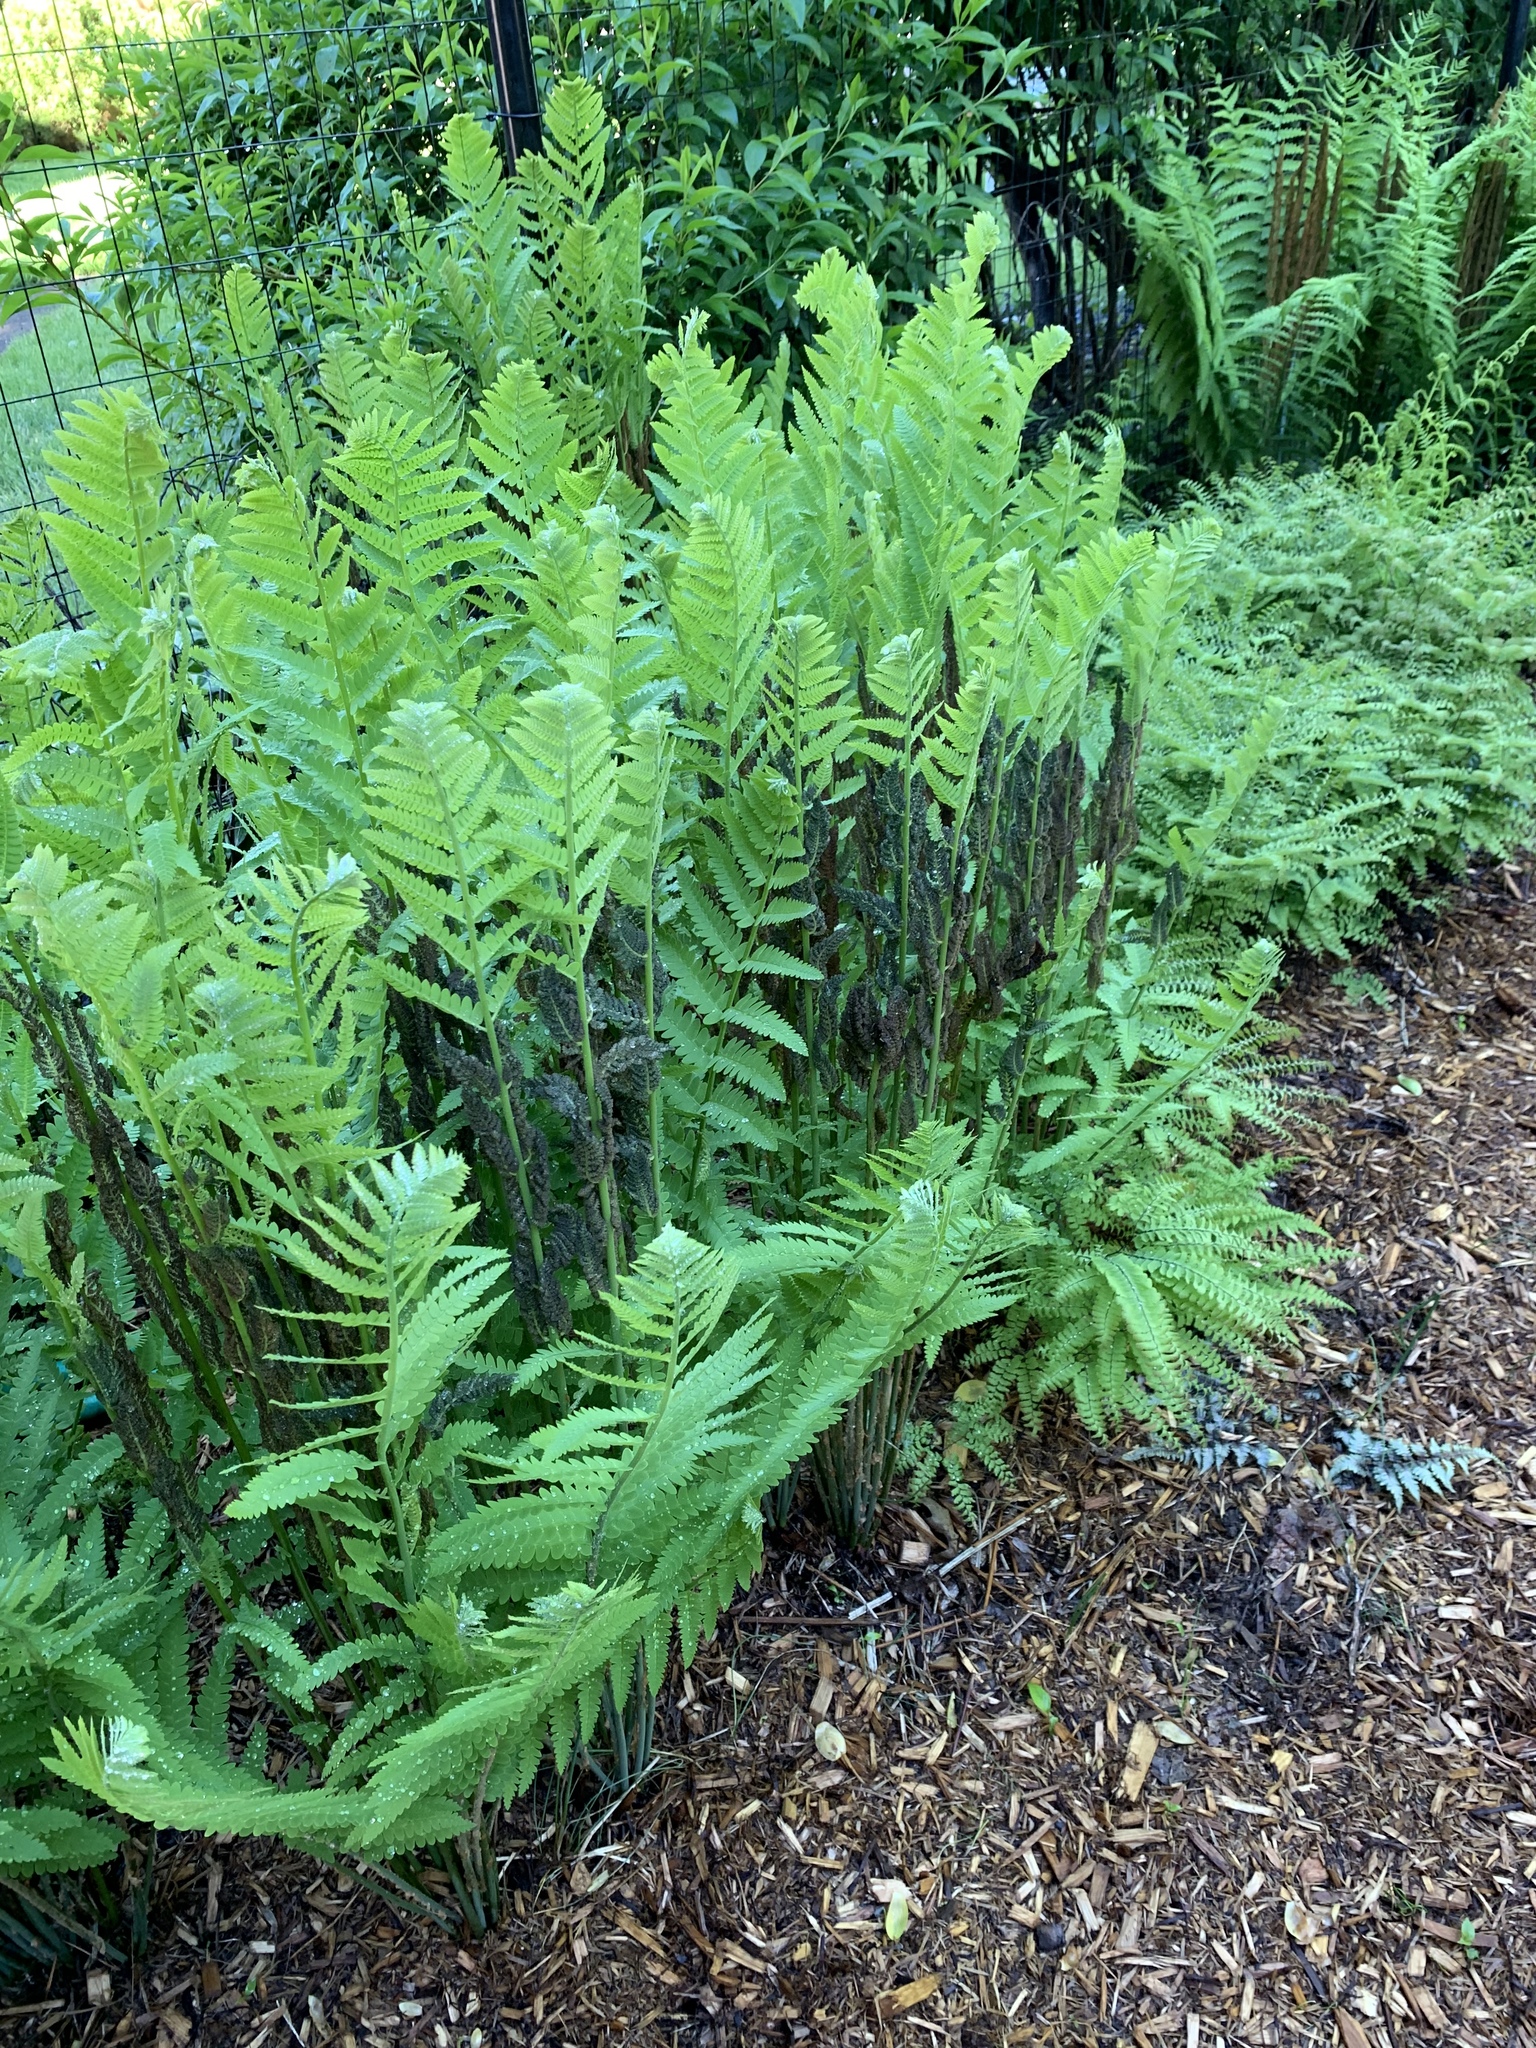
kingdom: Plantae
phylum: Tracheophyta
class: Polypodiopsida
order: Osmundales
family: Osmundaceae
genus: Claytosmunda
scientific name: Claytosmunda claytoniana
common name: Clayton's fern
